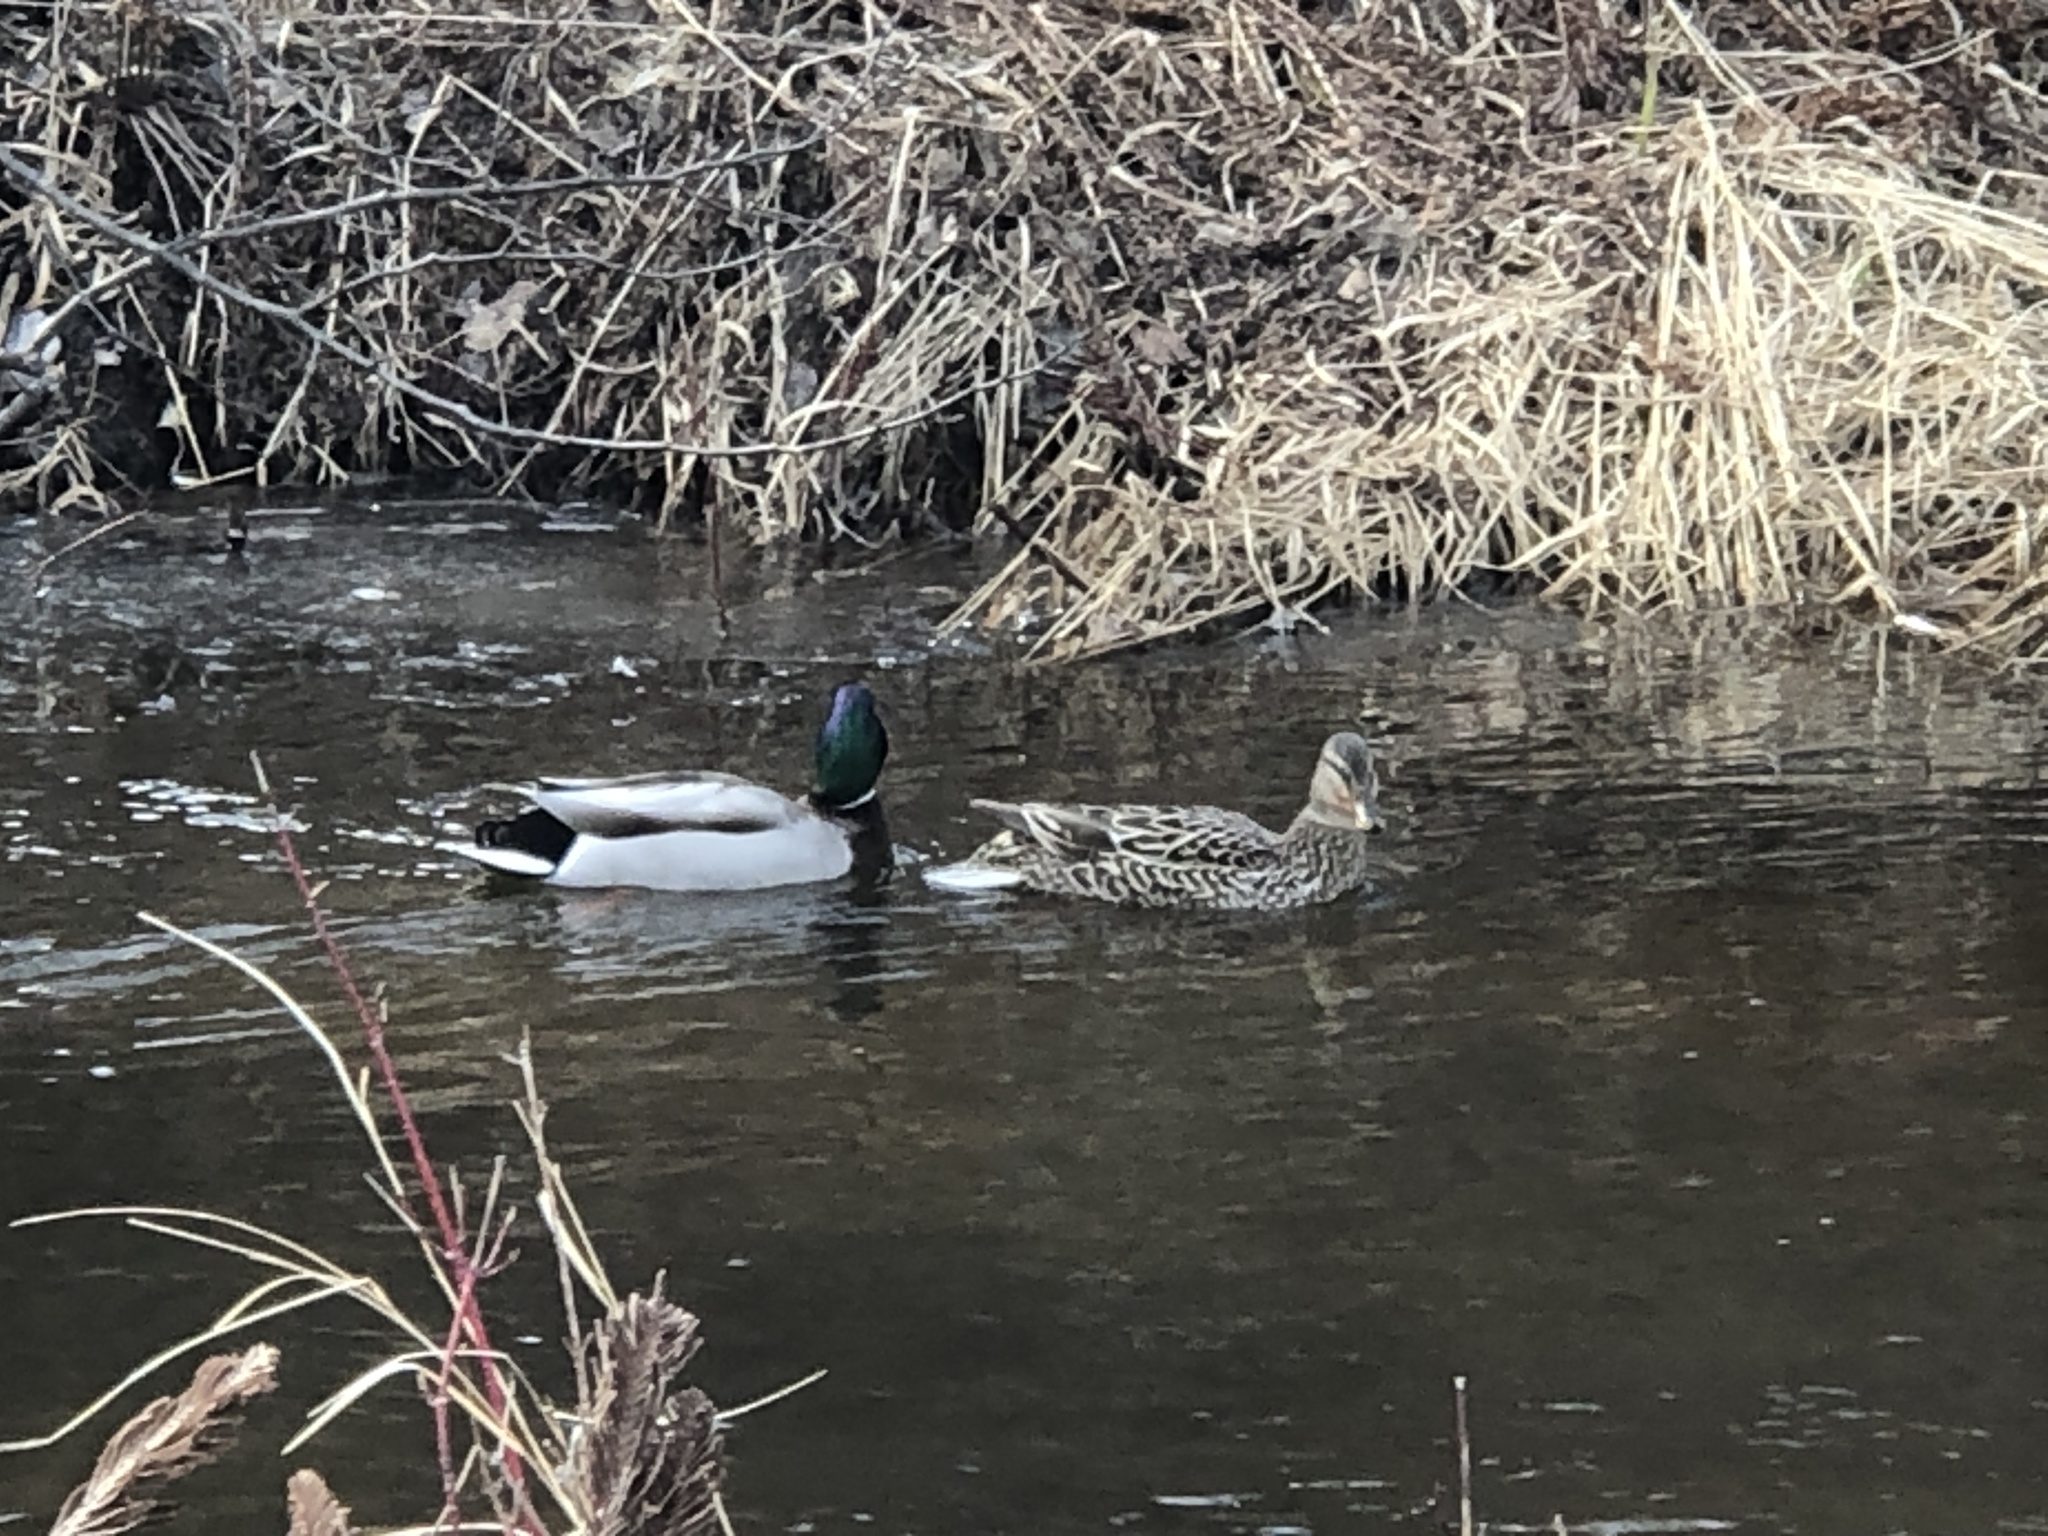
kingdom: Animalia
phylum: Chordata
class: Aves
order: Anseriformes
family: Anatidae
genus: Anas
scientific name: Anas platyrhynchos
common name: Mallard
